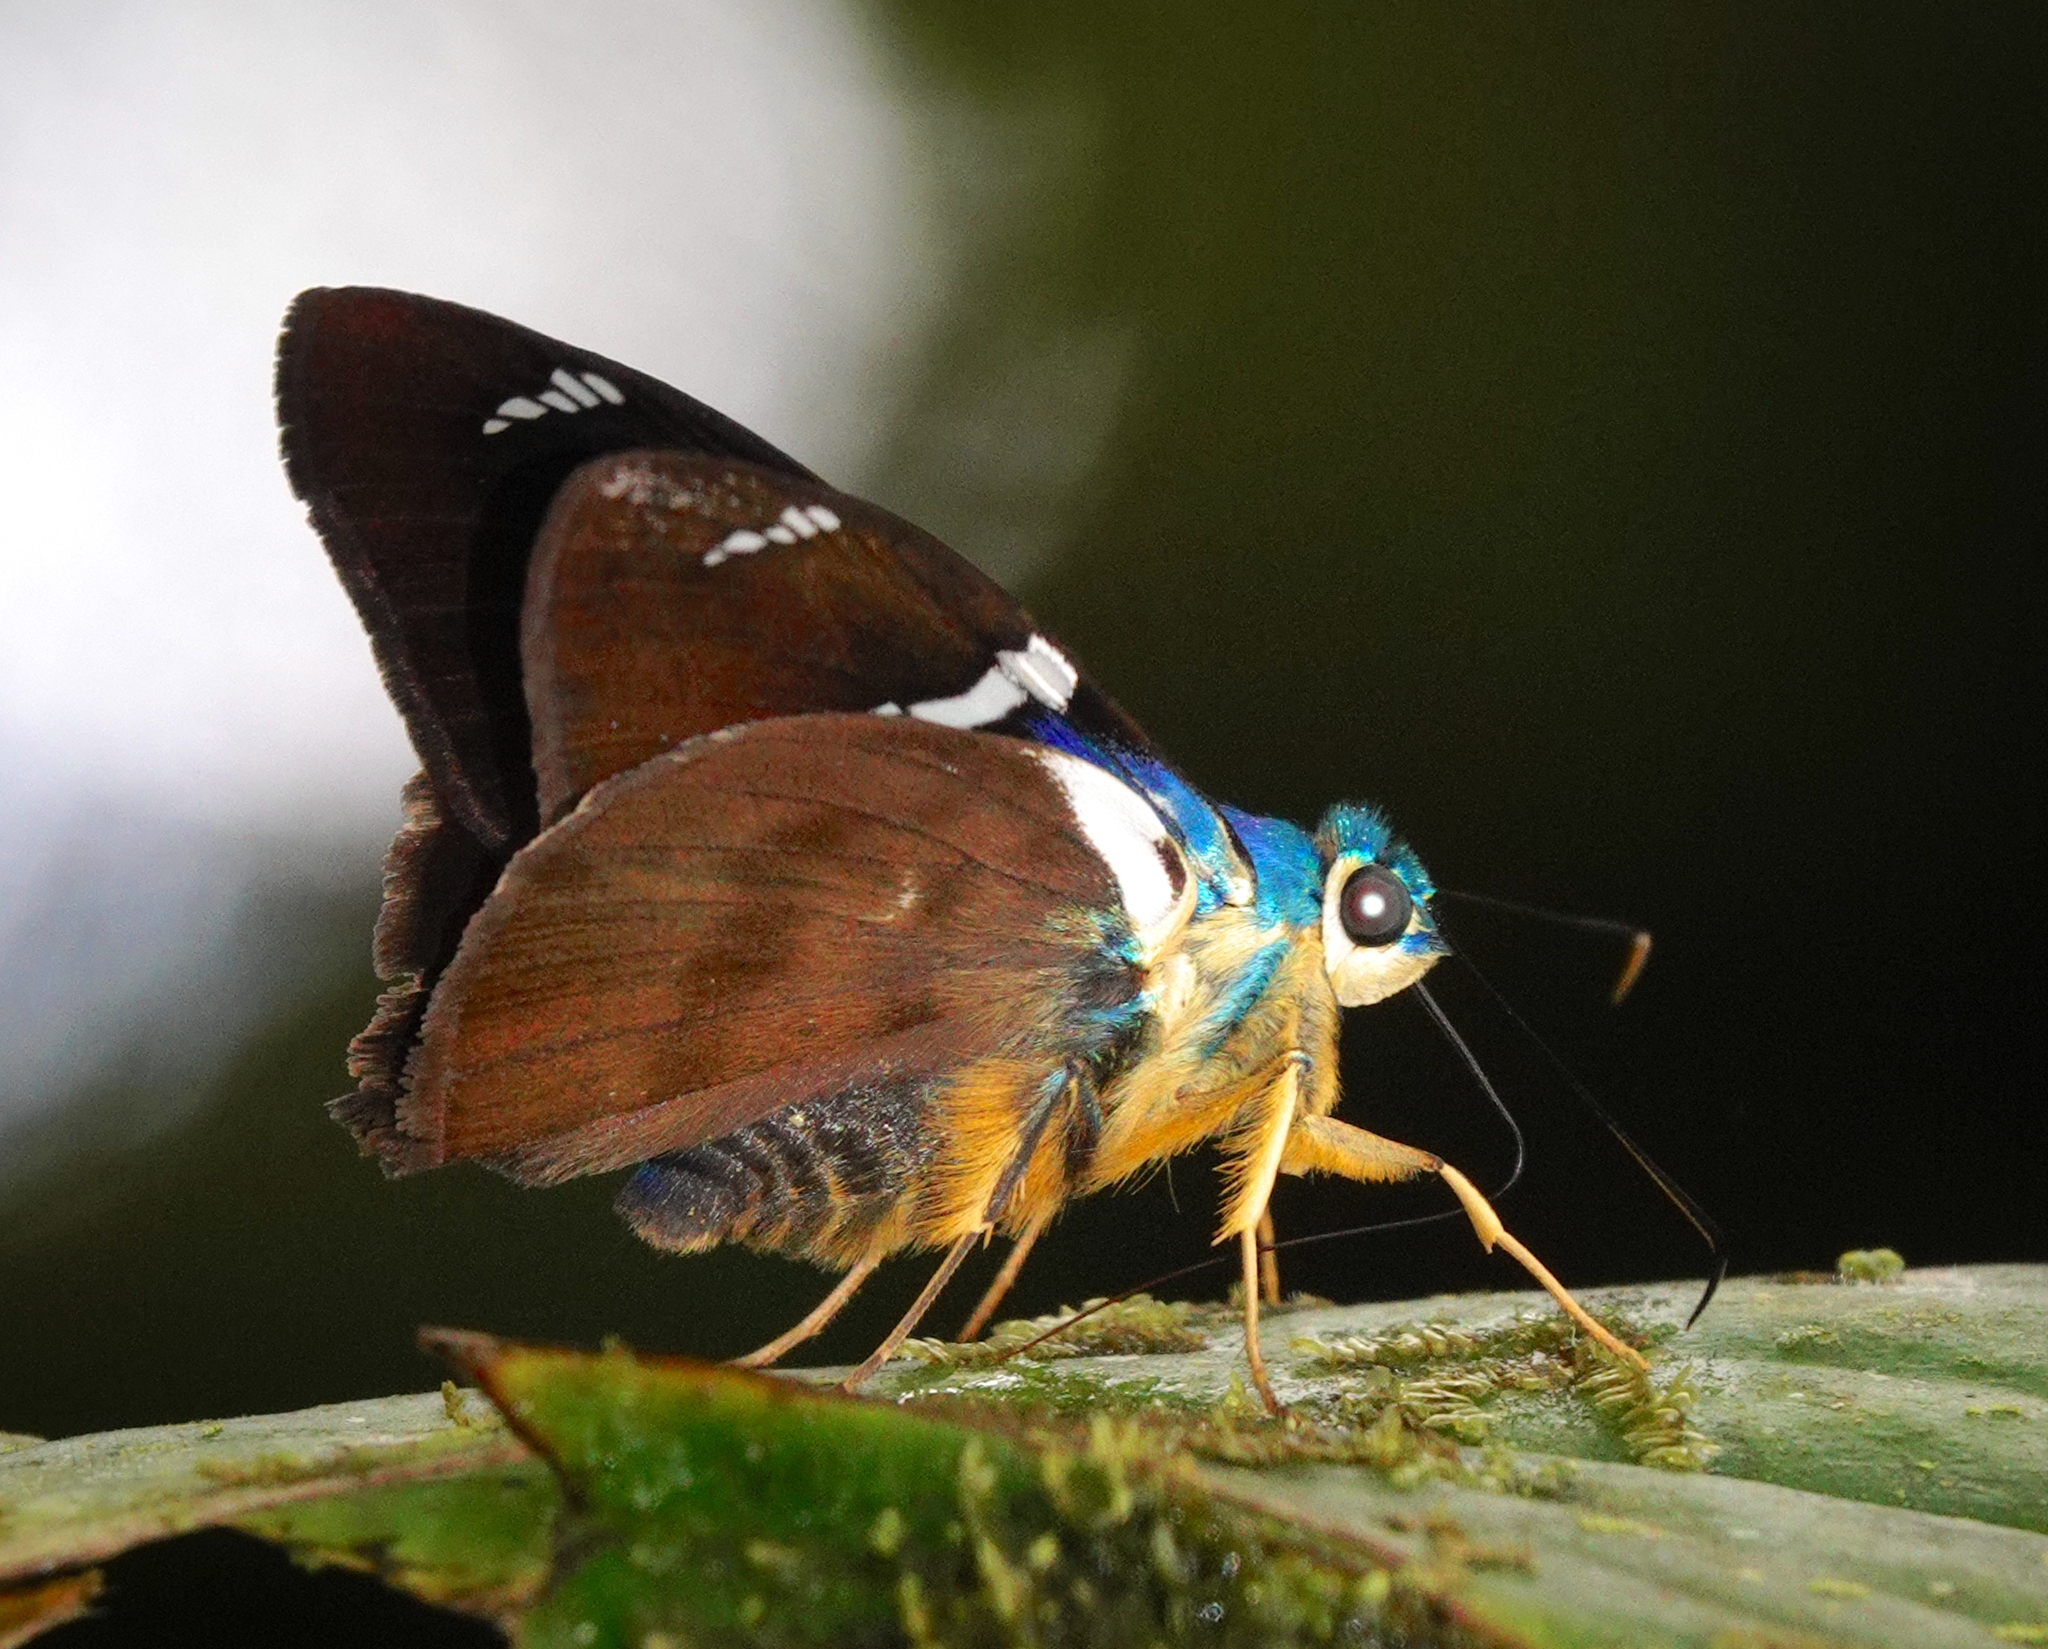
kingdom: Animalia
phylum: Arthropoda
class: Insecta
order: Lepidoptera
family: Hesperiidae
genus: Astraptes
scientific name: Astraptes fulgerator
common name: Two-barred flasher
